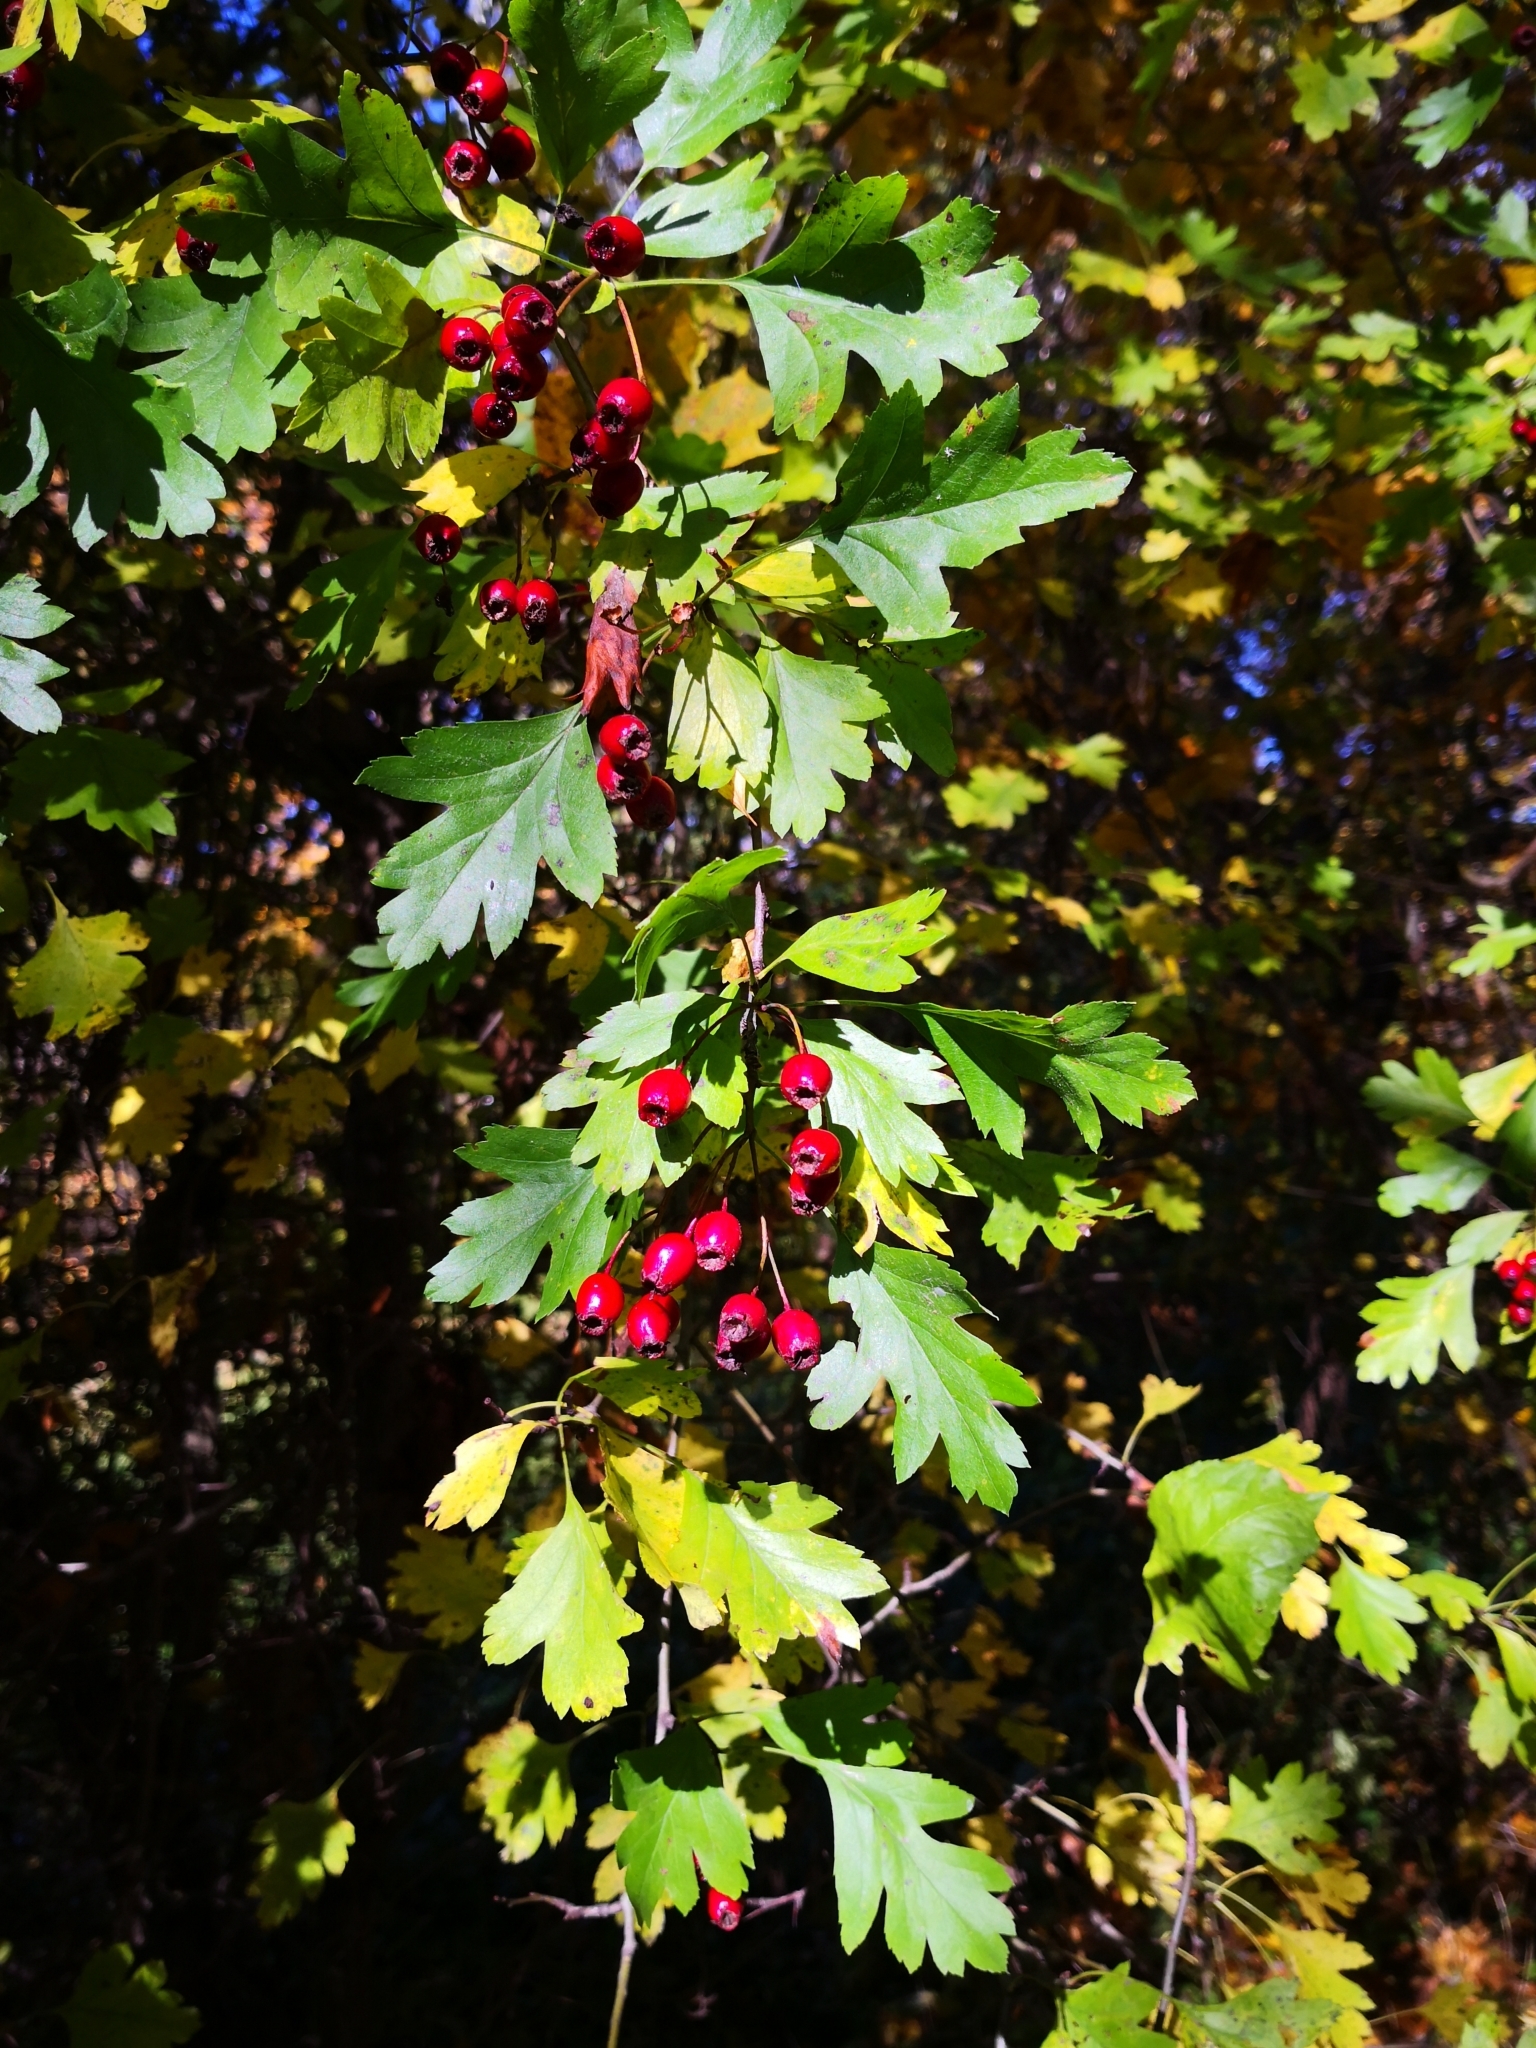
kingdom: Plantae
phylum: Tracheophyta
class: Magnoliopsida
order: Rosales
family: Rosaceae
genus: Crataegus
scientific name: Crataegus monogyna
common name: Hawthorn
